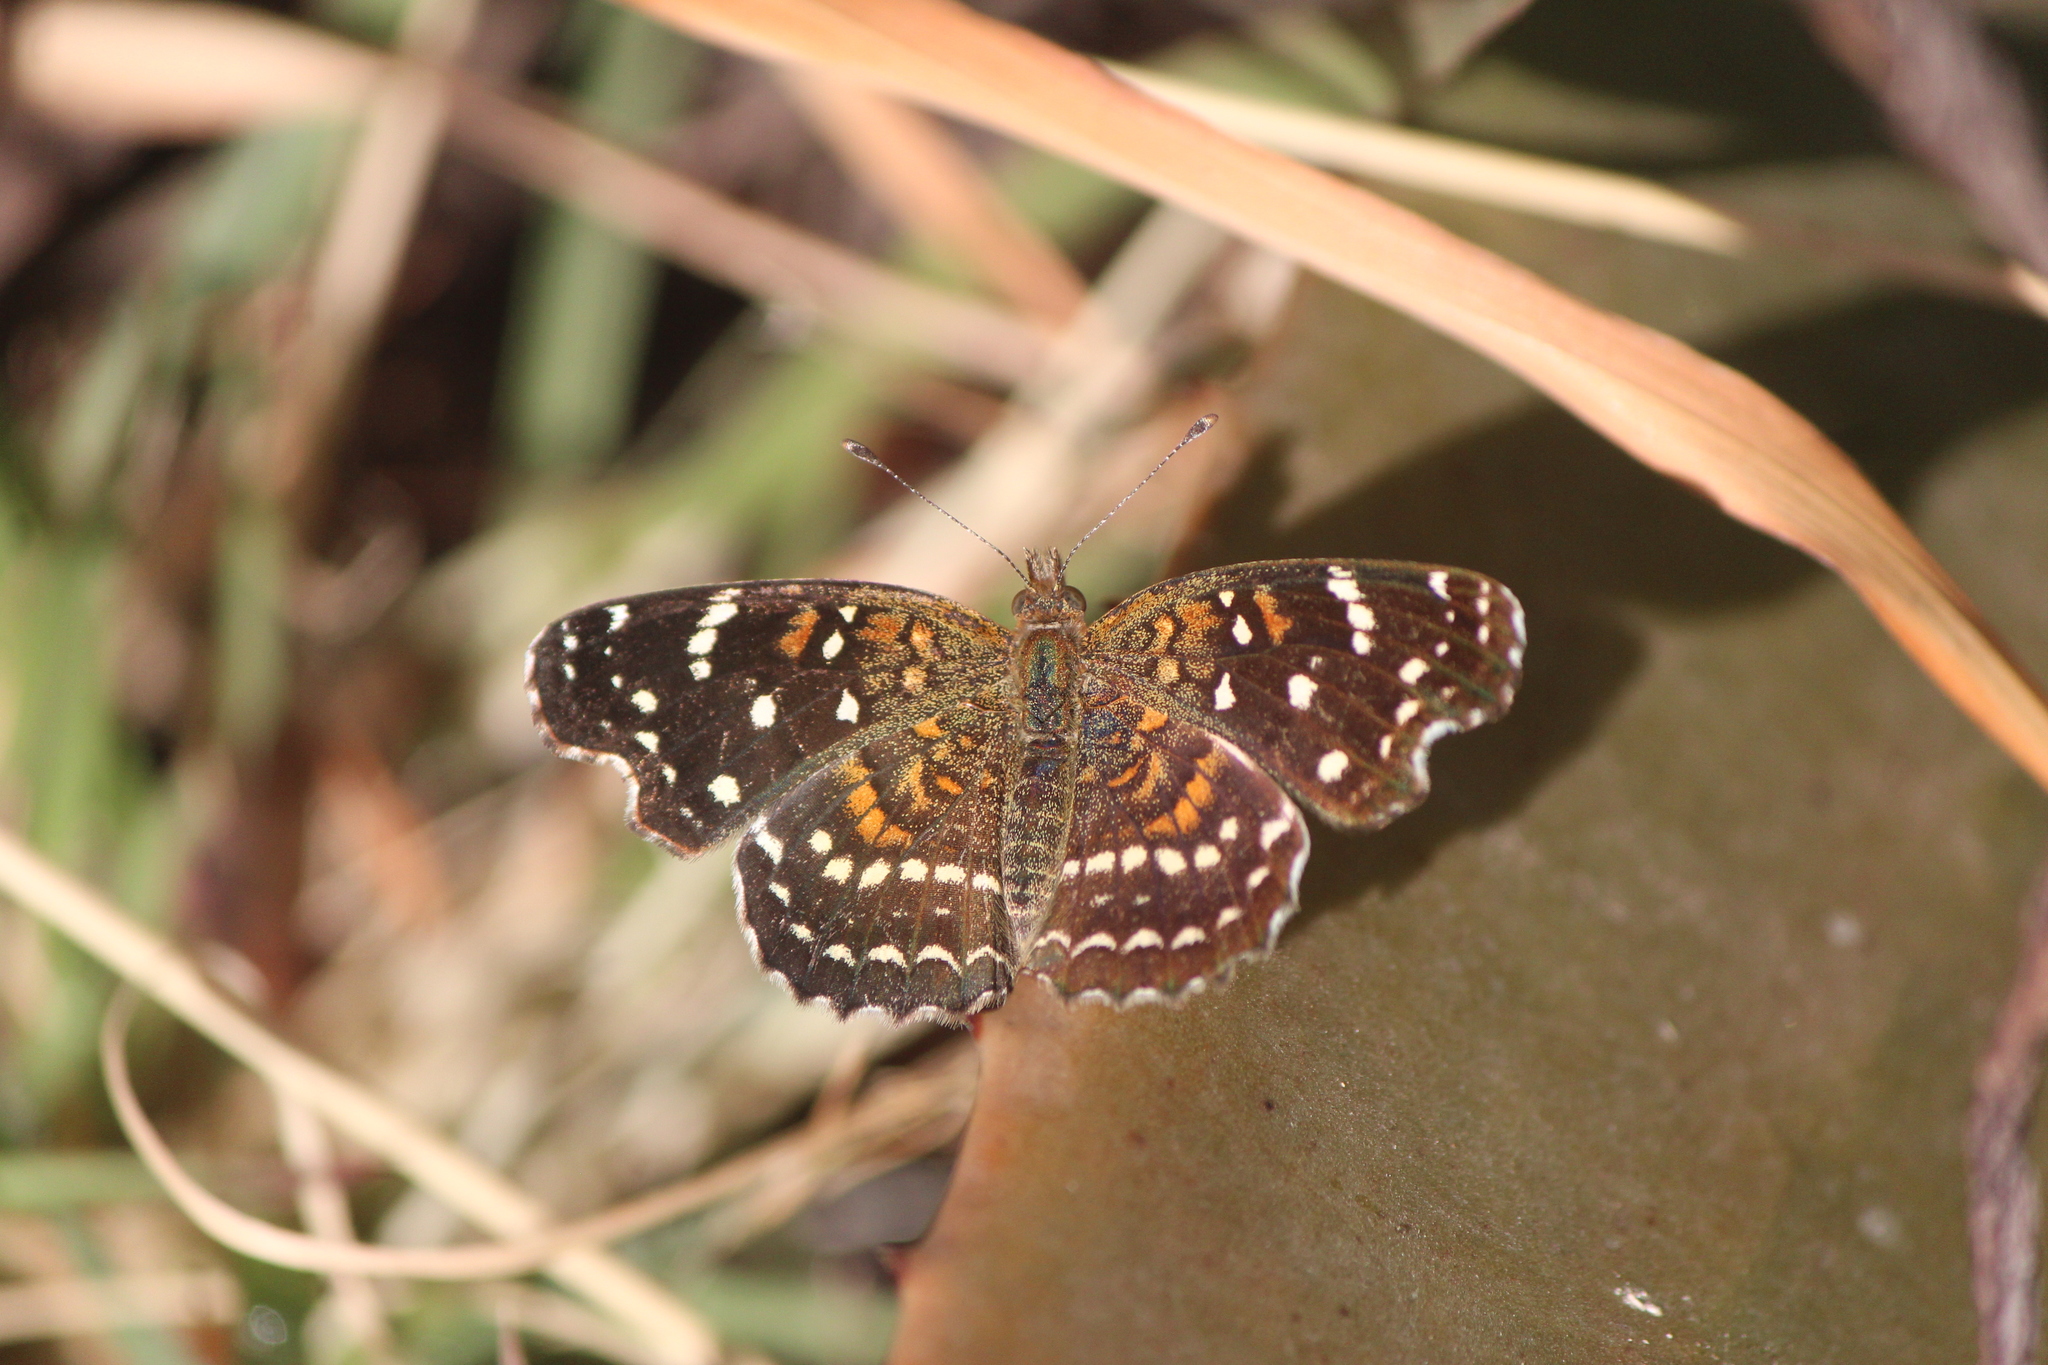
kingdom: Animalia
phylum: Arthropoda
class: Insecta
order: Lepidoptera
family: Nymphalidae
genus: Anthanassa
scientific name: Anthanassa texana
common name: Texan crescent
